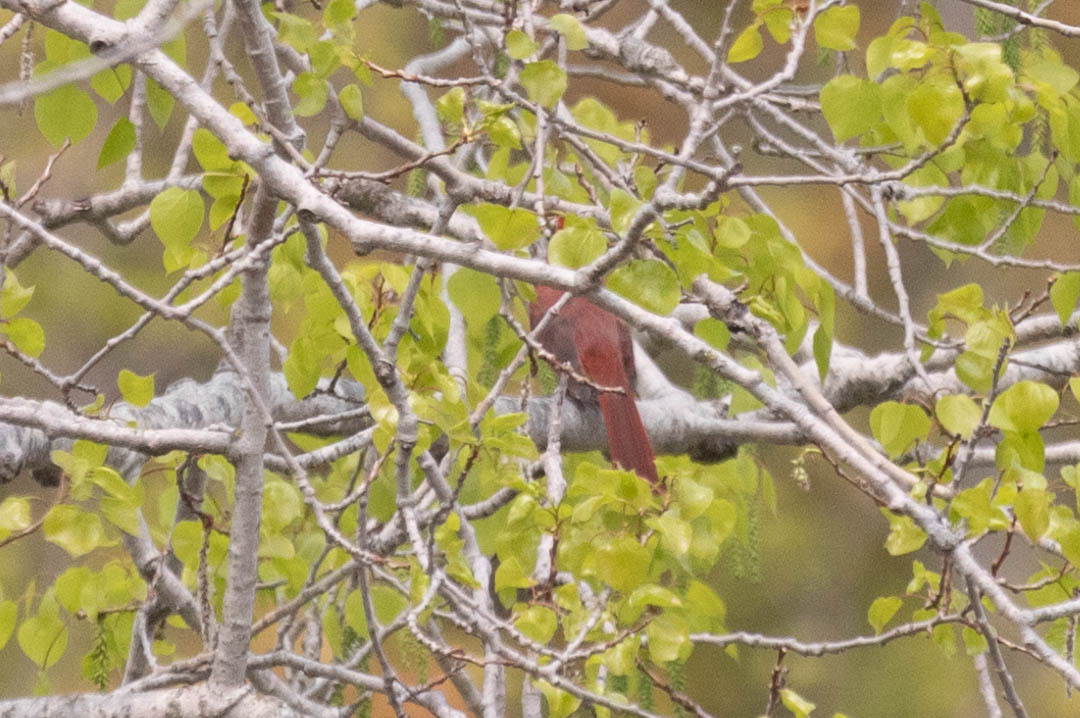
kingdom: Animalia
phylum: Chordata
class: Aves
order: Passeriformes
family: Cardinalidae
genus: Cardinalis
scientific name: Cardinalis cardinalis
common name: Northern cardinal
